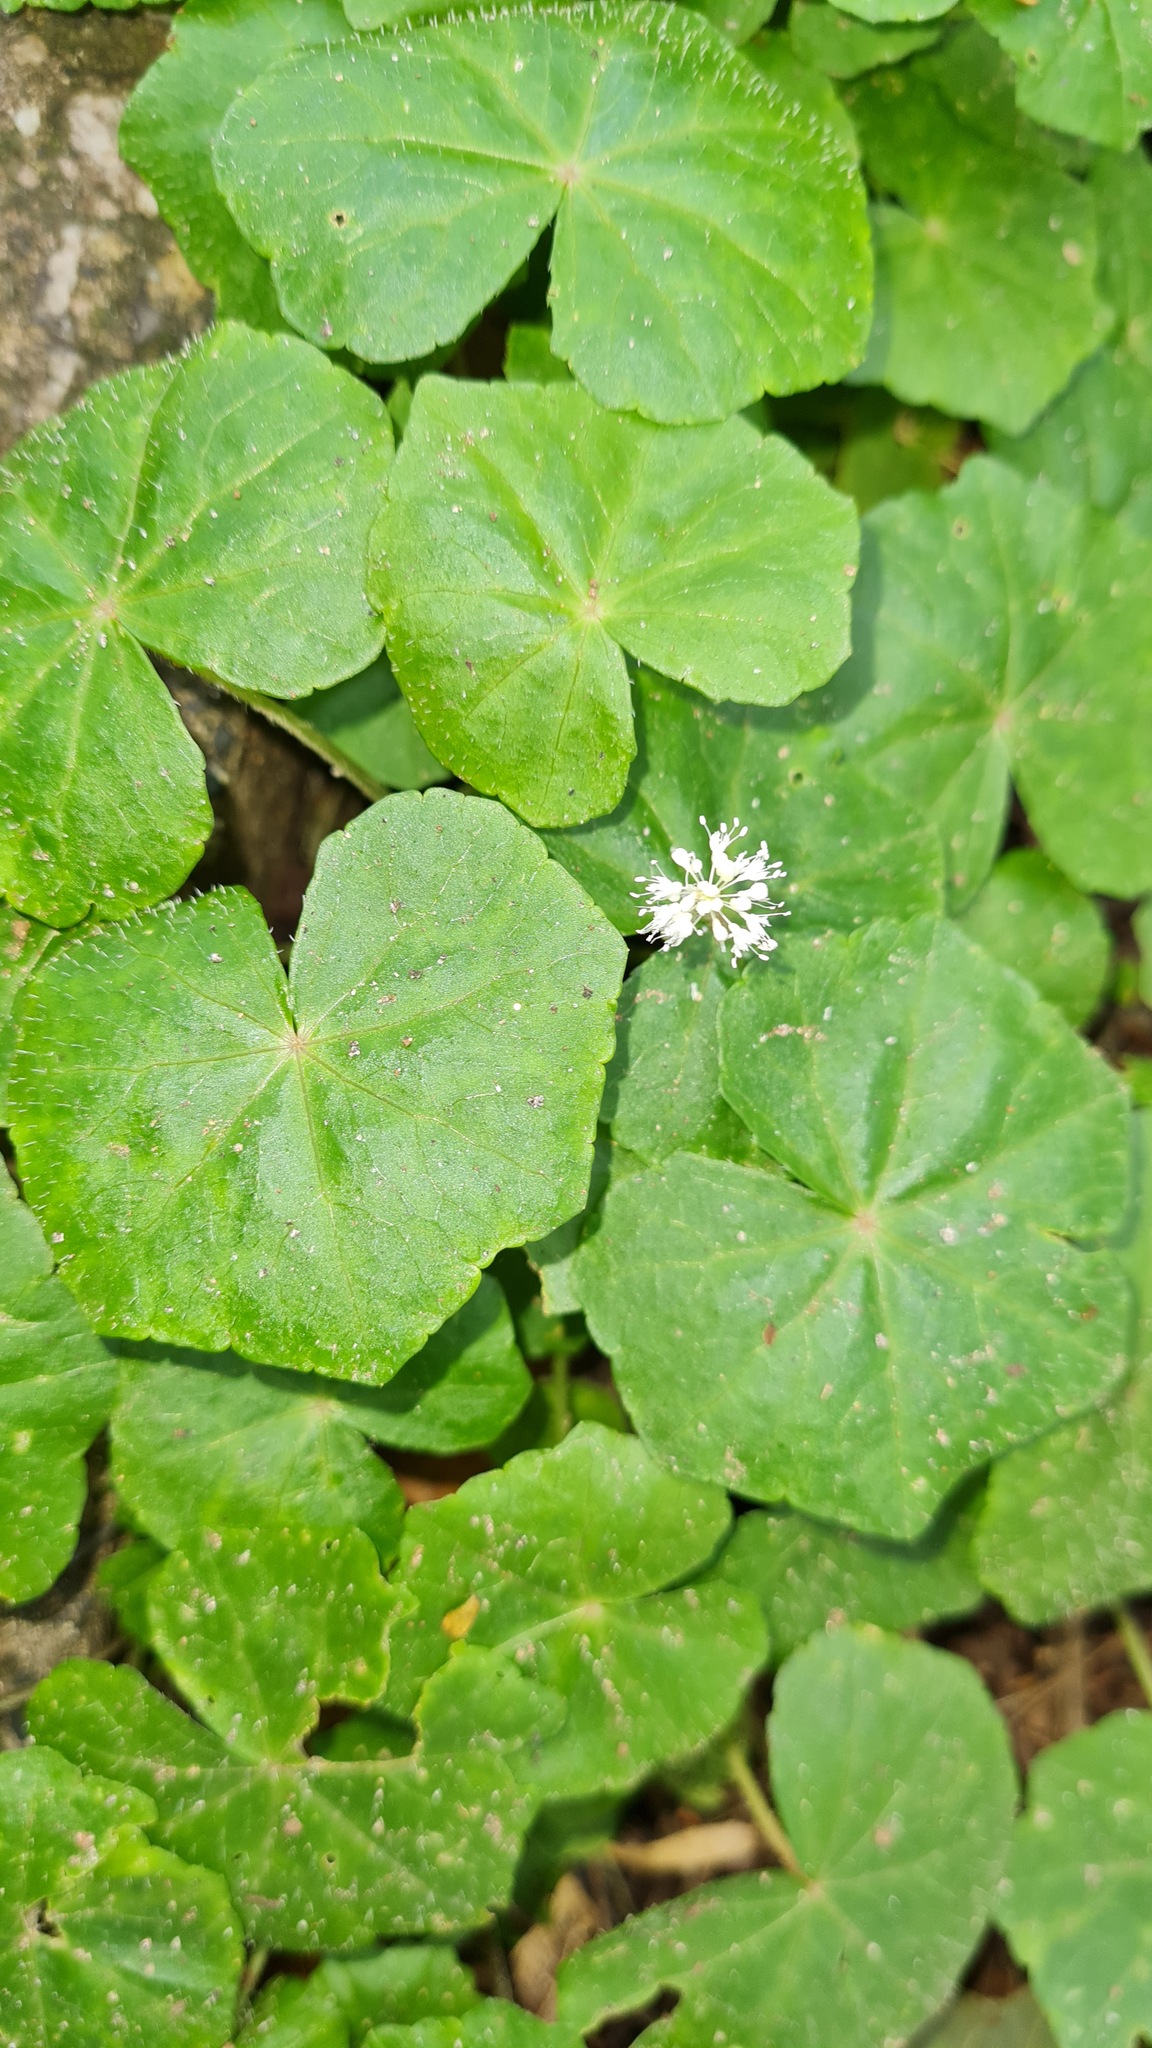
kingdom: Plantae
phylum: Tracheophyta
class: Magnoliopsida
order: Apiales
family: Araliaceae
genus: Hydrocotyle
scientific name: Hydrocotyle leucocephala
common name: Brazilian pennywort
